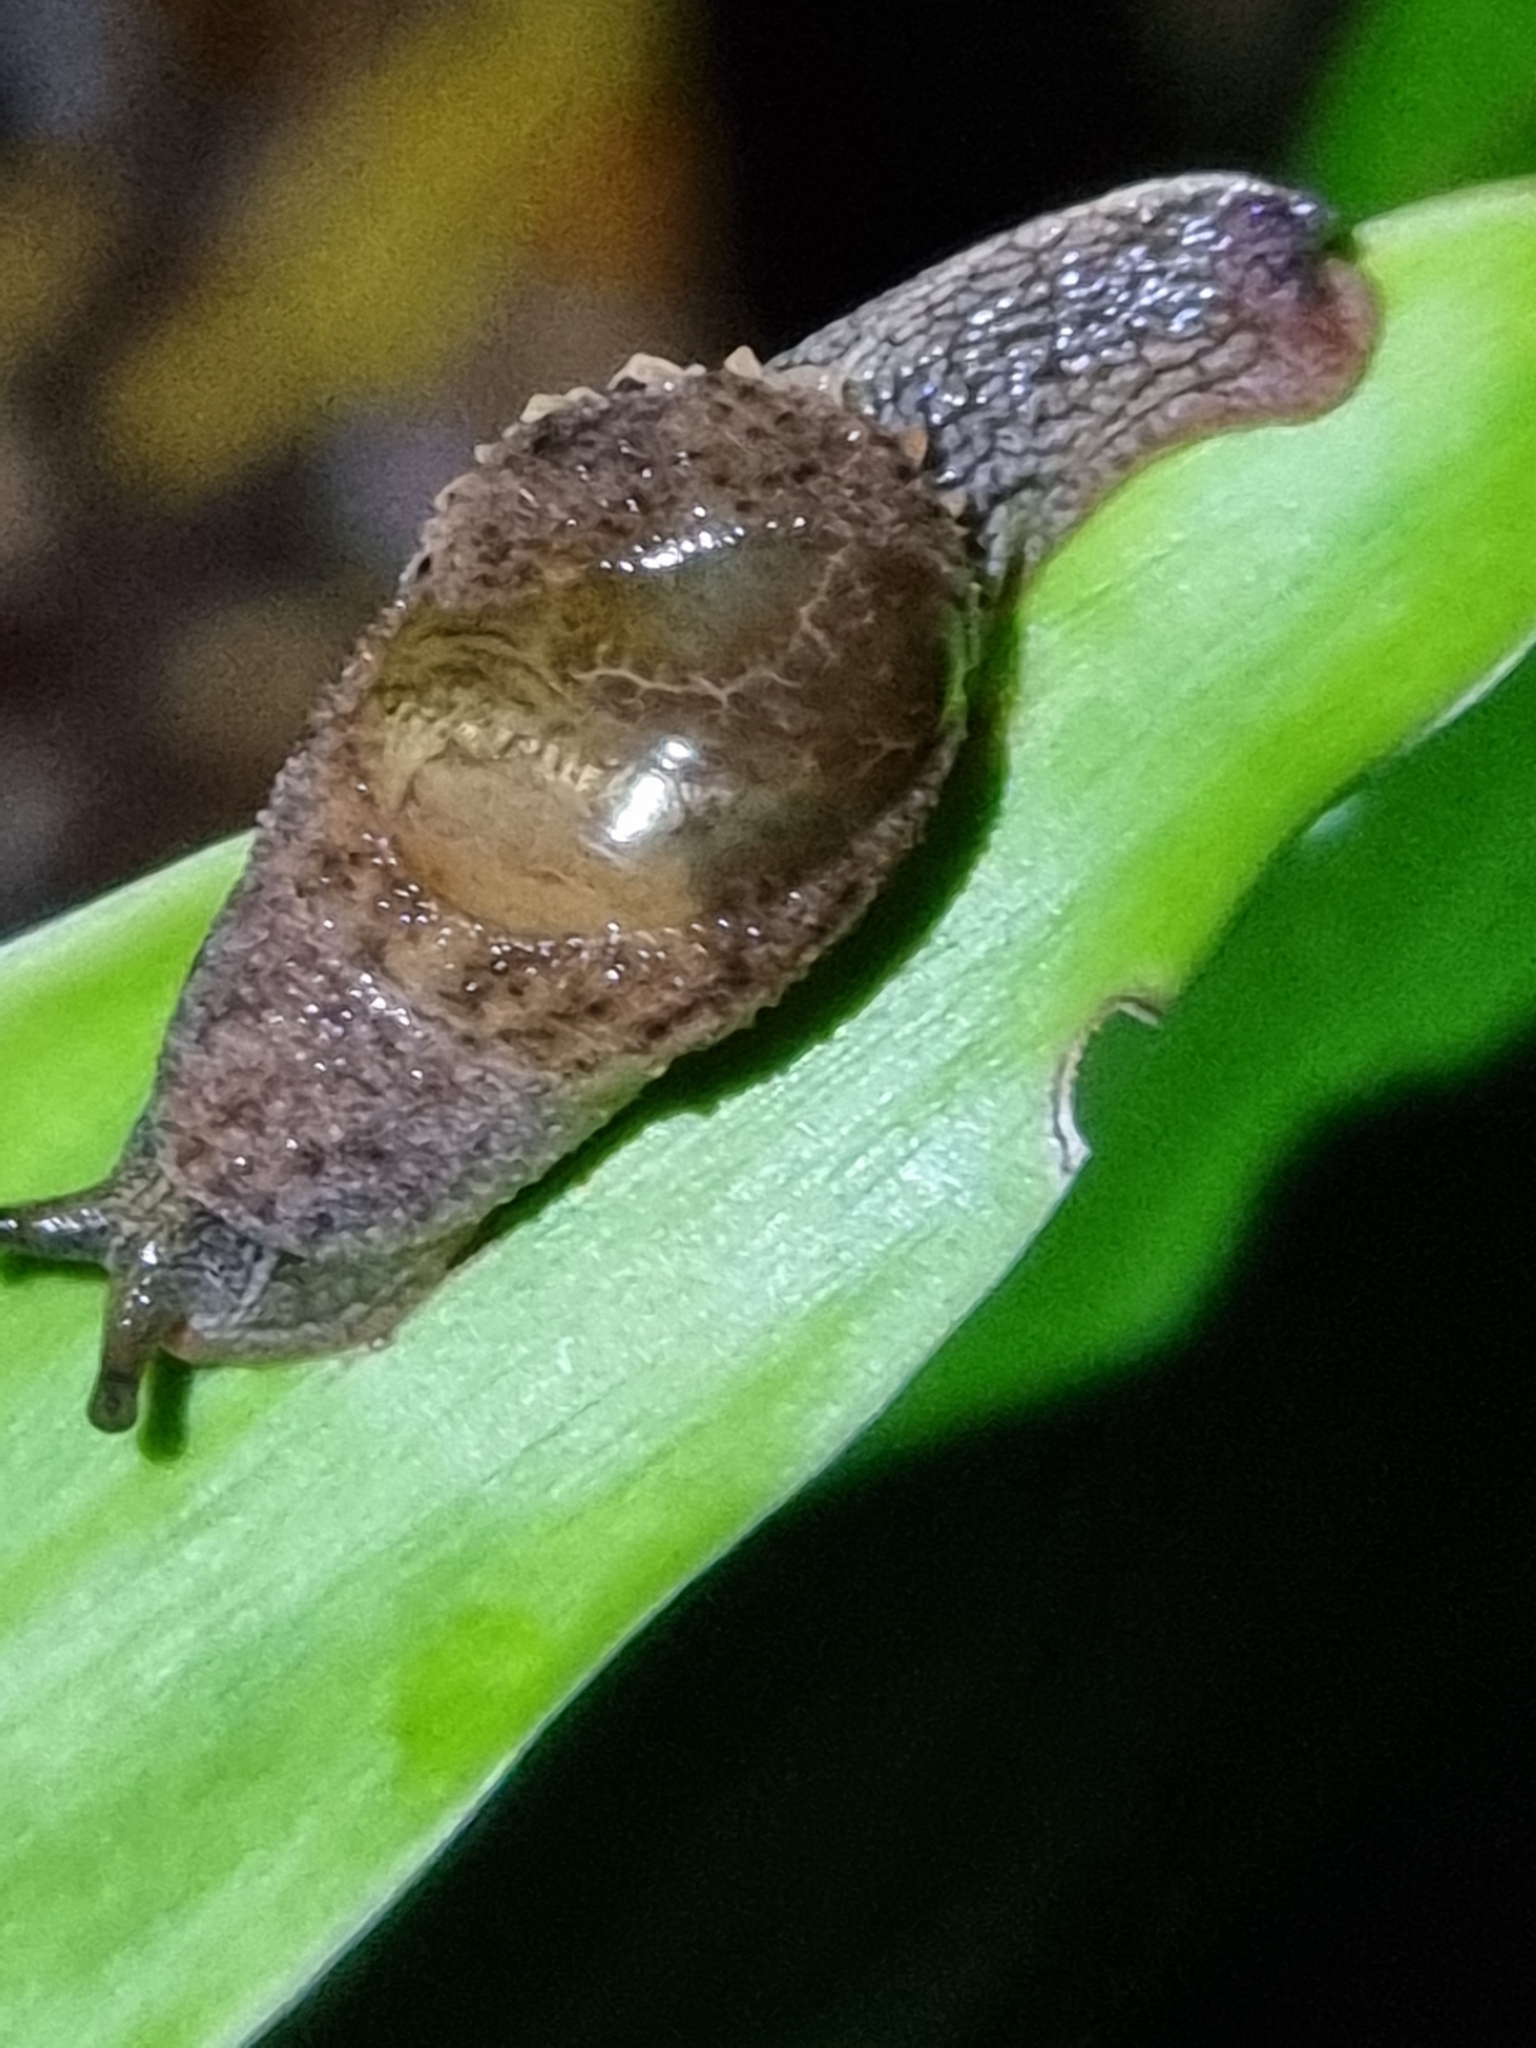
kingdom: Animalia
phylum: Mollusca
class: Gastropoda
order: Stylommatophora
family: Helicarionidae
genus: Stanisicarion
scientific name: Stanisicarion freycineti
